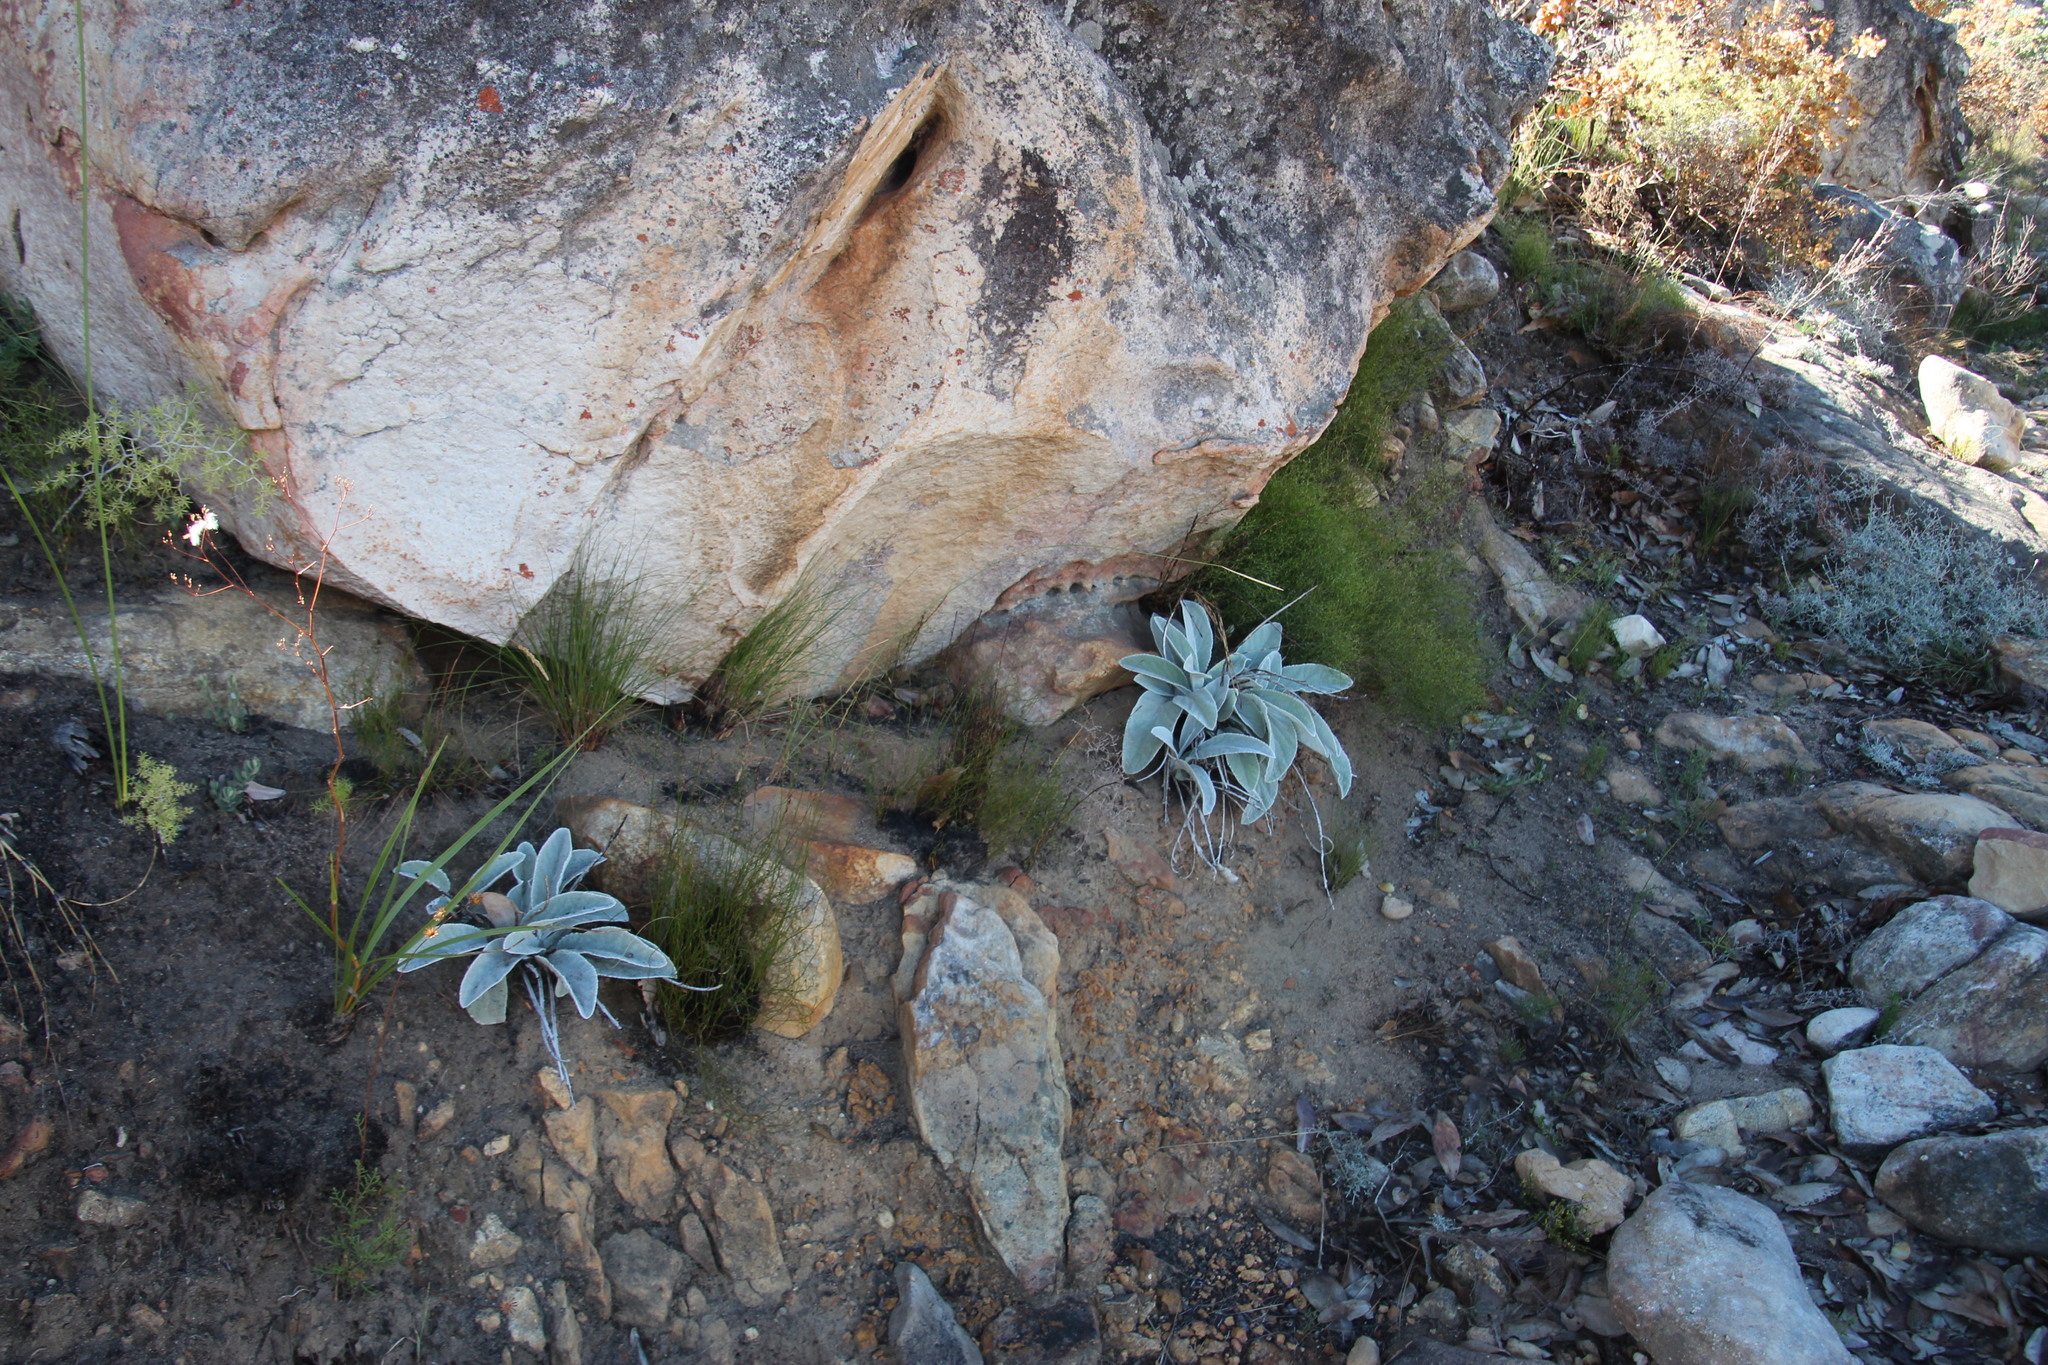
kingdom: Plantae
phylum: Tracheophyta
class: Magnoliopsida
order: Apiales
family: Apiaceae
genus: Hermas
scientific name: Hermas gigantea
